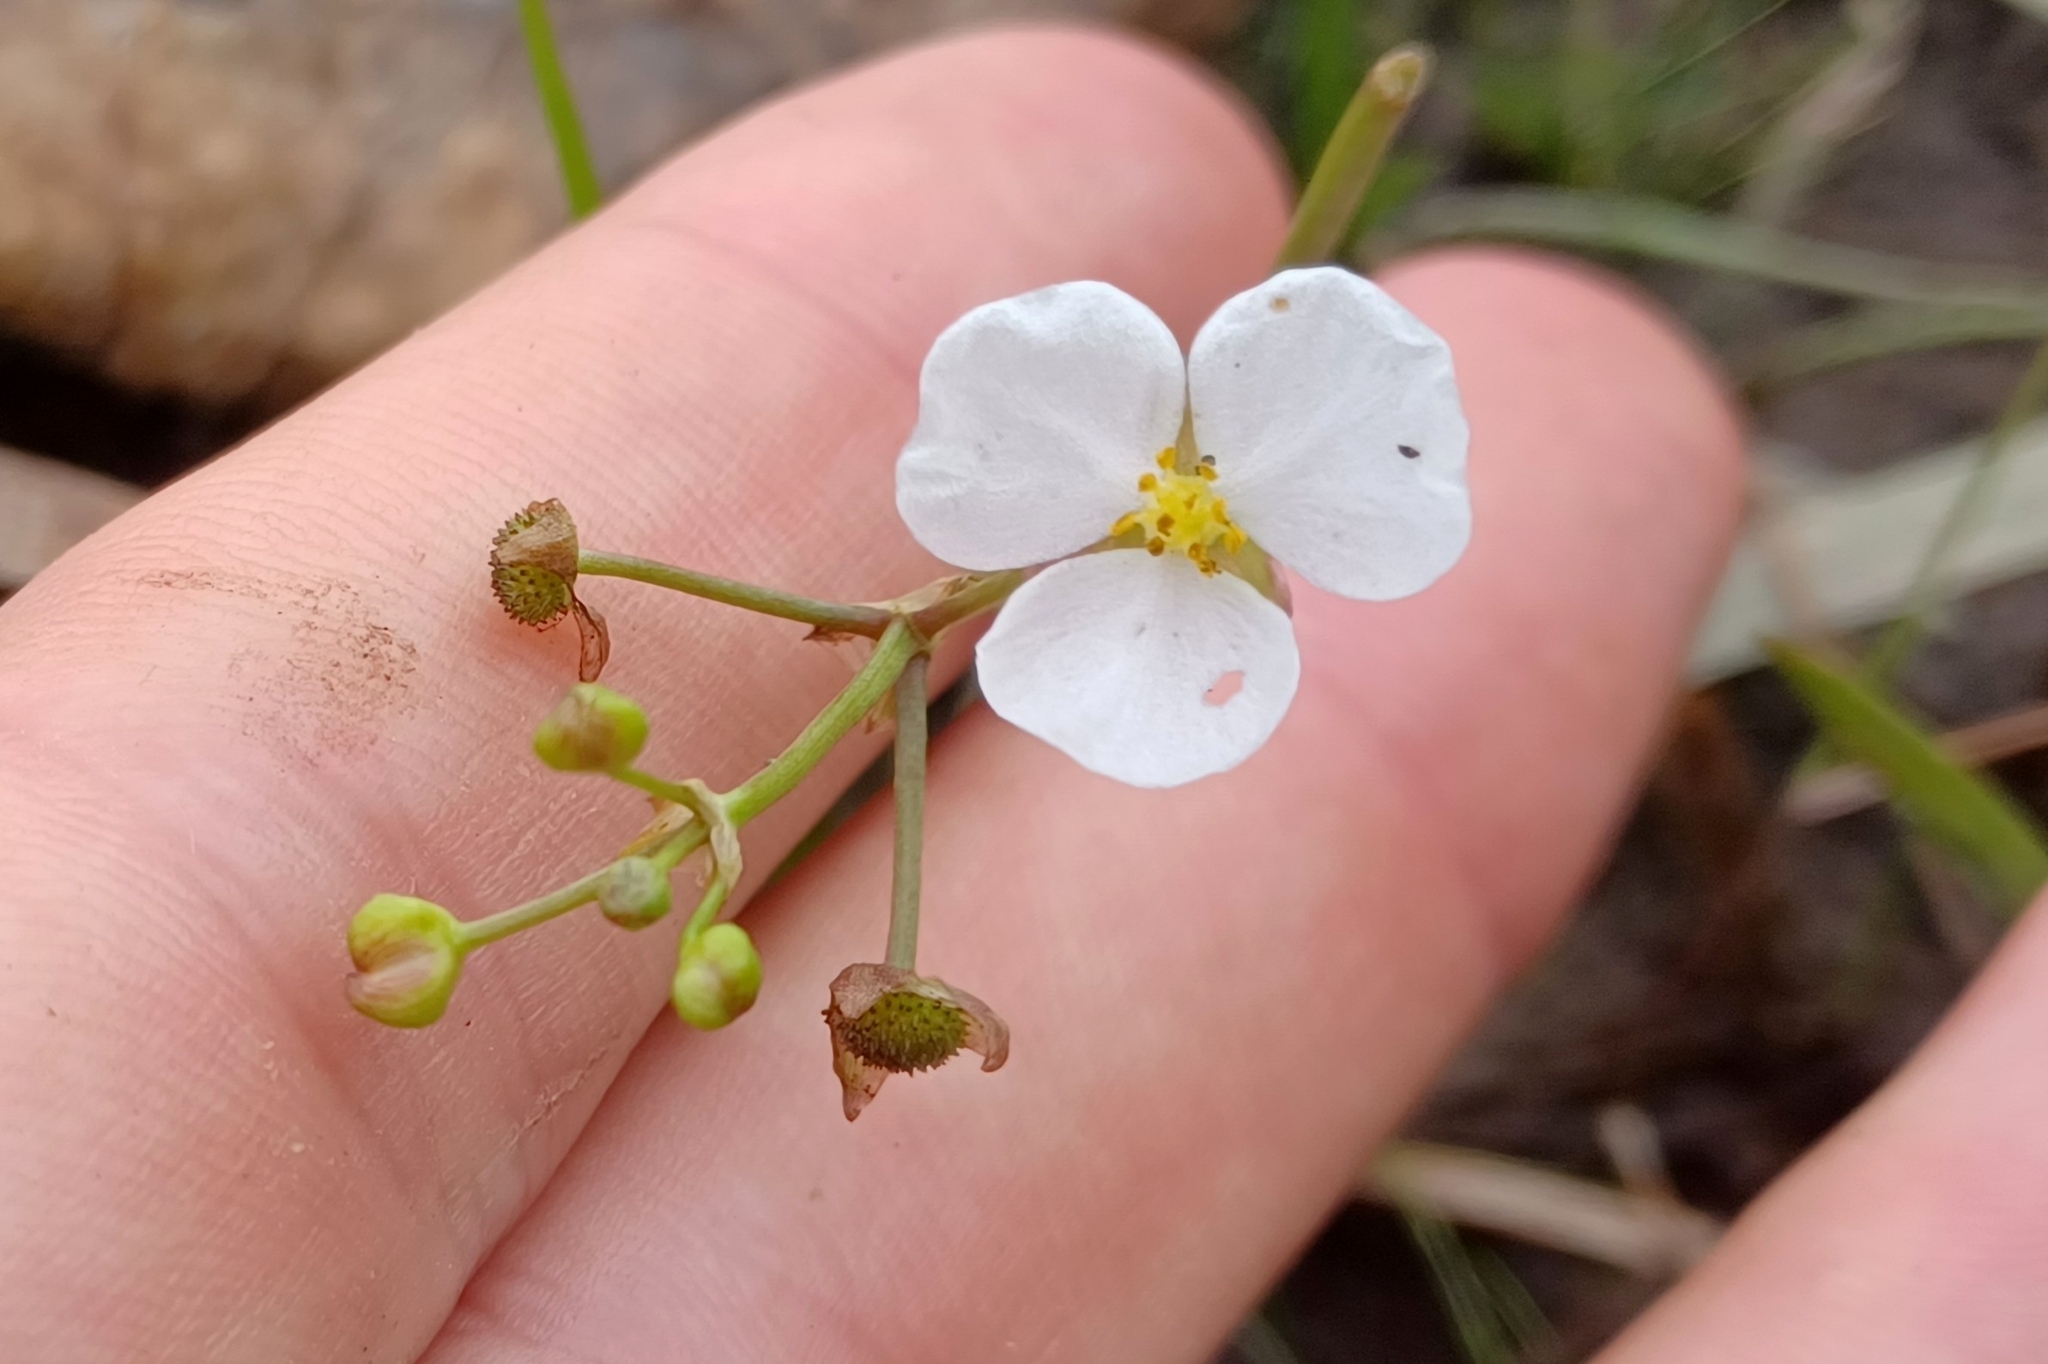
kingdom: Plantae
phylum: Tracheophyta
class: Liliopsida
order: Alismatales
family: Alismataceae
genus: Sagittaria
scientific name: Sagittaria graminea
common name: Grass-leaved arrowhead
